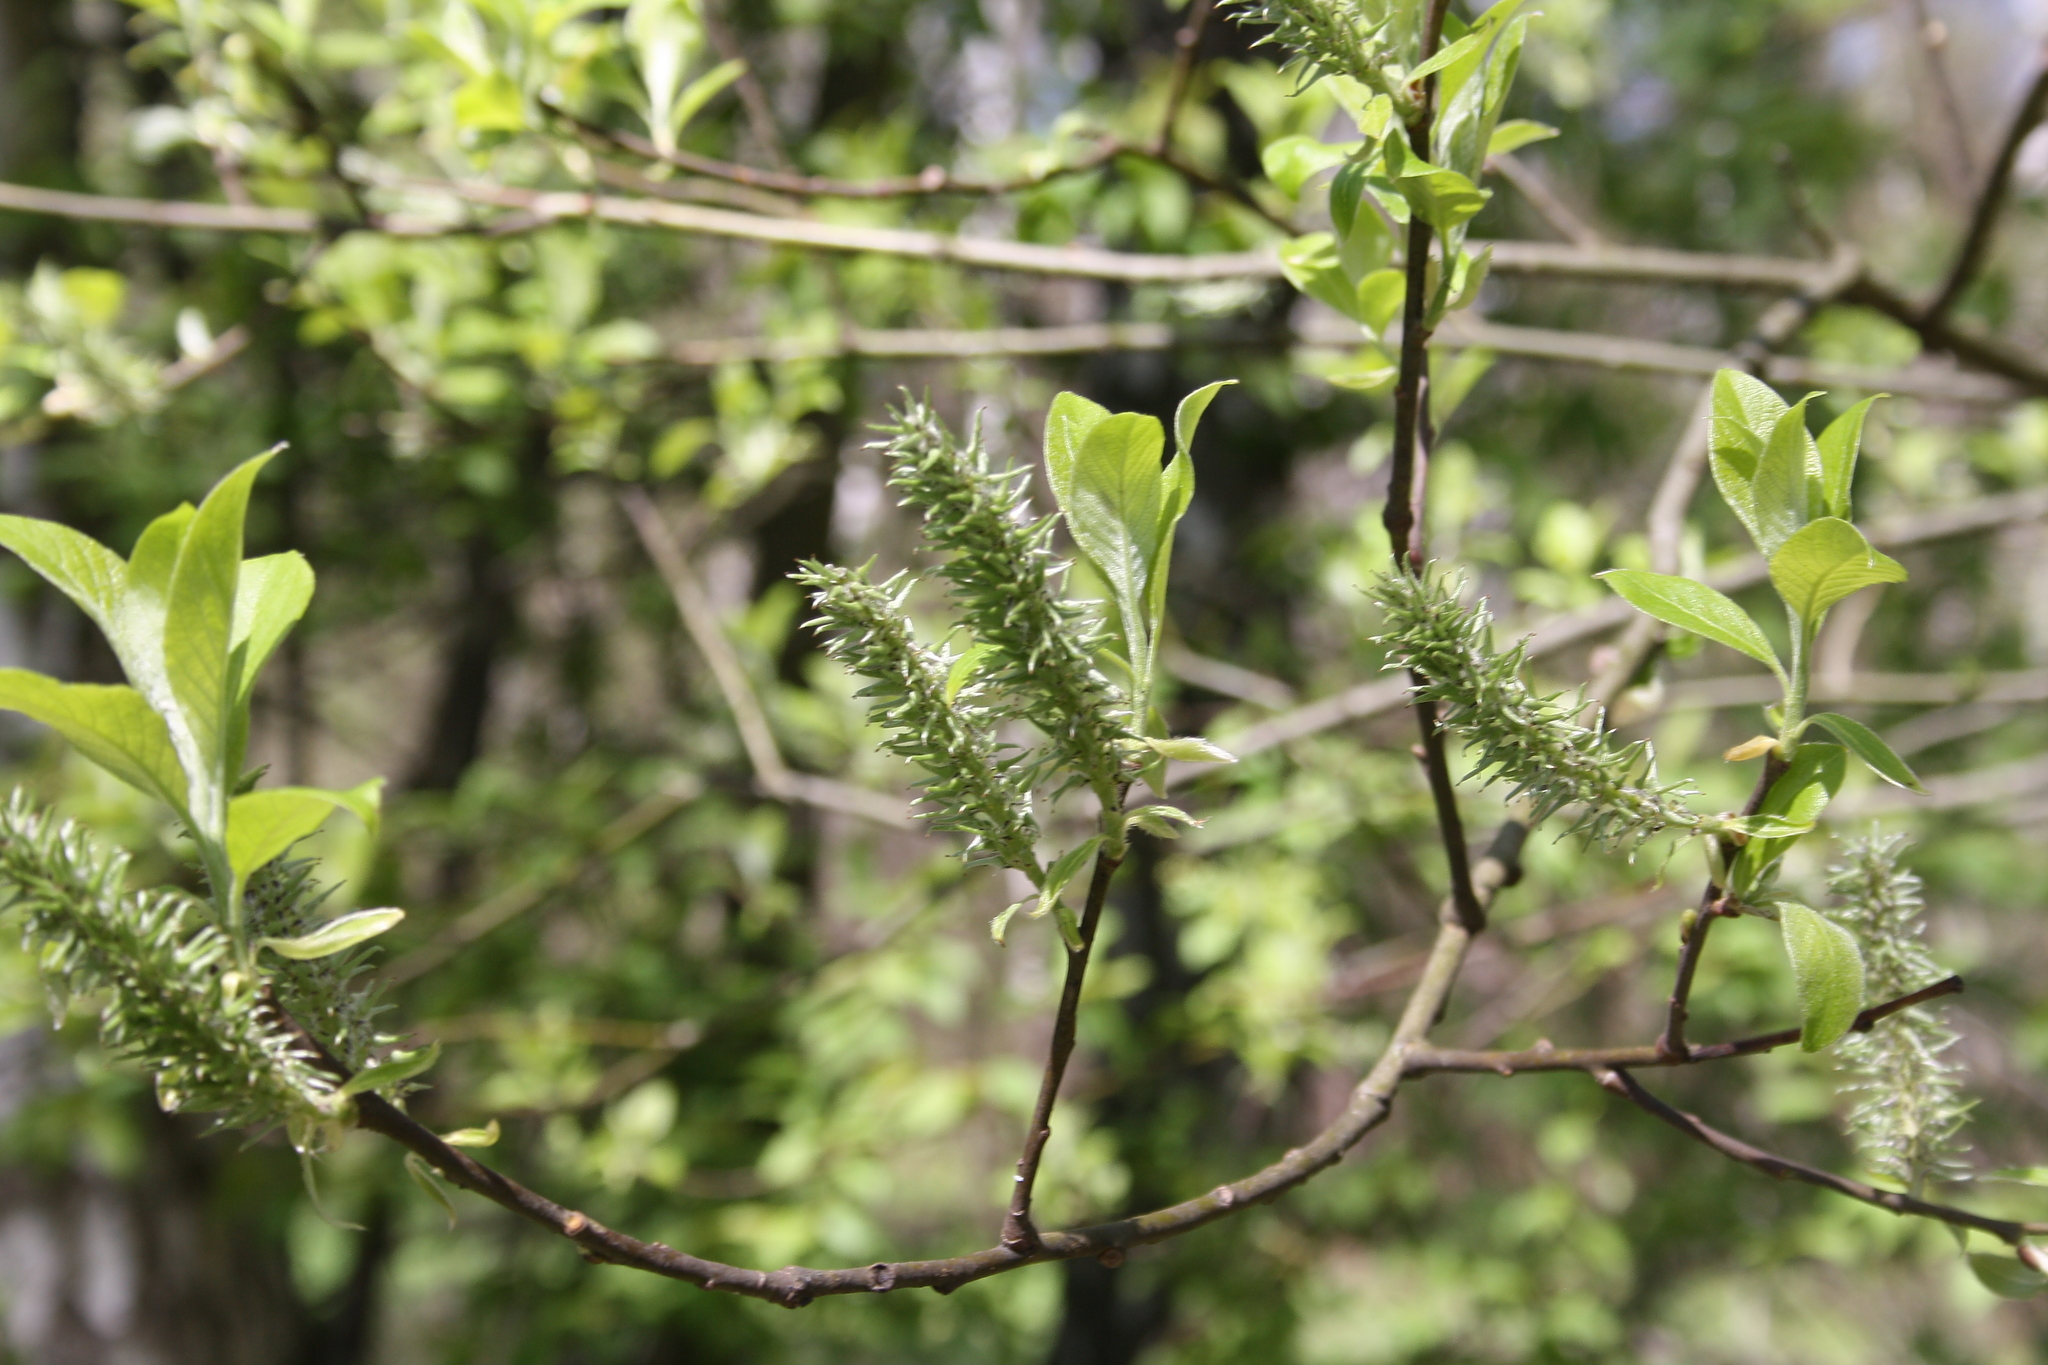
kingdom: Plantae
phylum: Tracheophyta
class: Magnoliopsida
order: Malpighiales
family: Salicaceae
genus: Salix
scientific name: Salix caprea
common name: Goat willow
